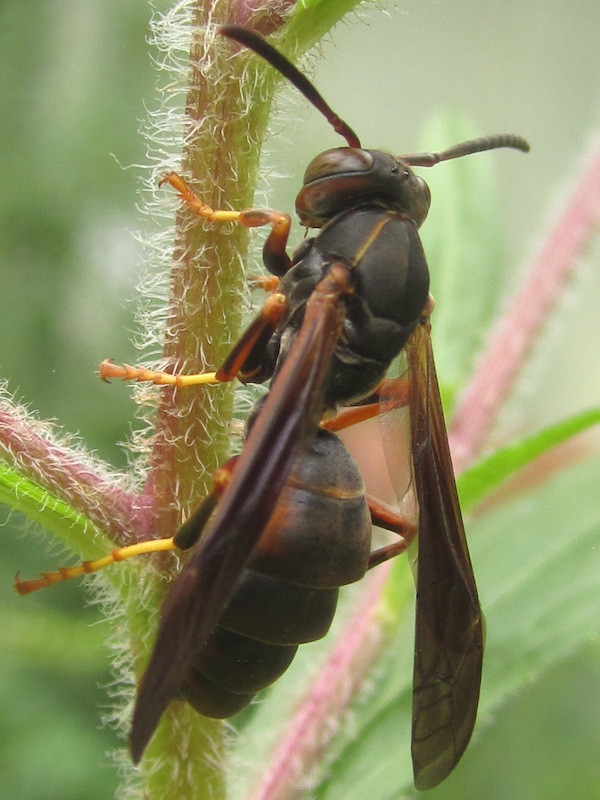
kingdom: Animalia
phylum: Arthropoda
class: Insecta
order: Hymenoptera
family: Eumenidae
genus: Polistes
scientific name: Polistes fuscatus
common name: Dark paper wasp
